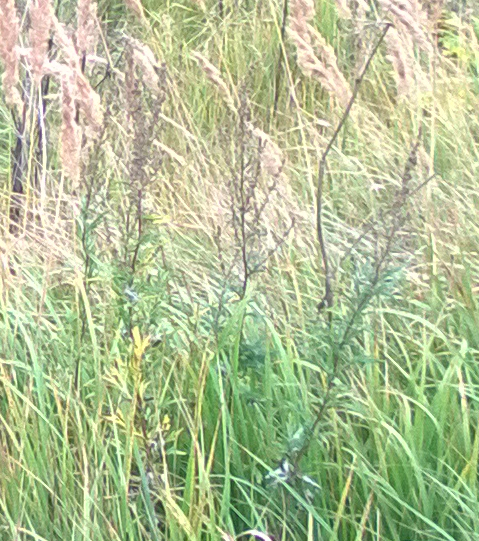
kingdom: Plantae
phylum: Tracheophyta
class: Magnoliopsida
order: Asterales
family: Asteraceae
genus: Artemisia
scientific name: Artemisia vulgaris
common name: Mugwort
